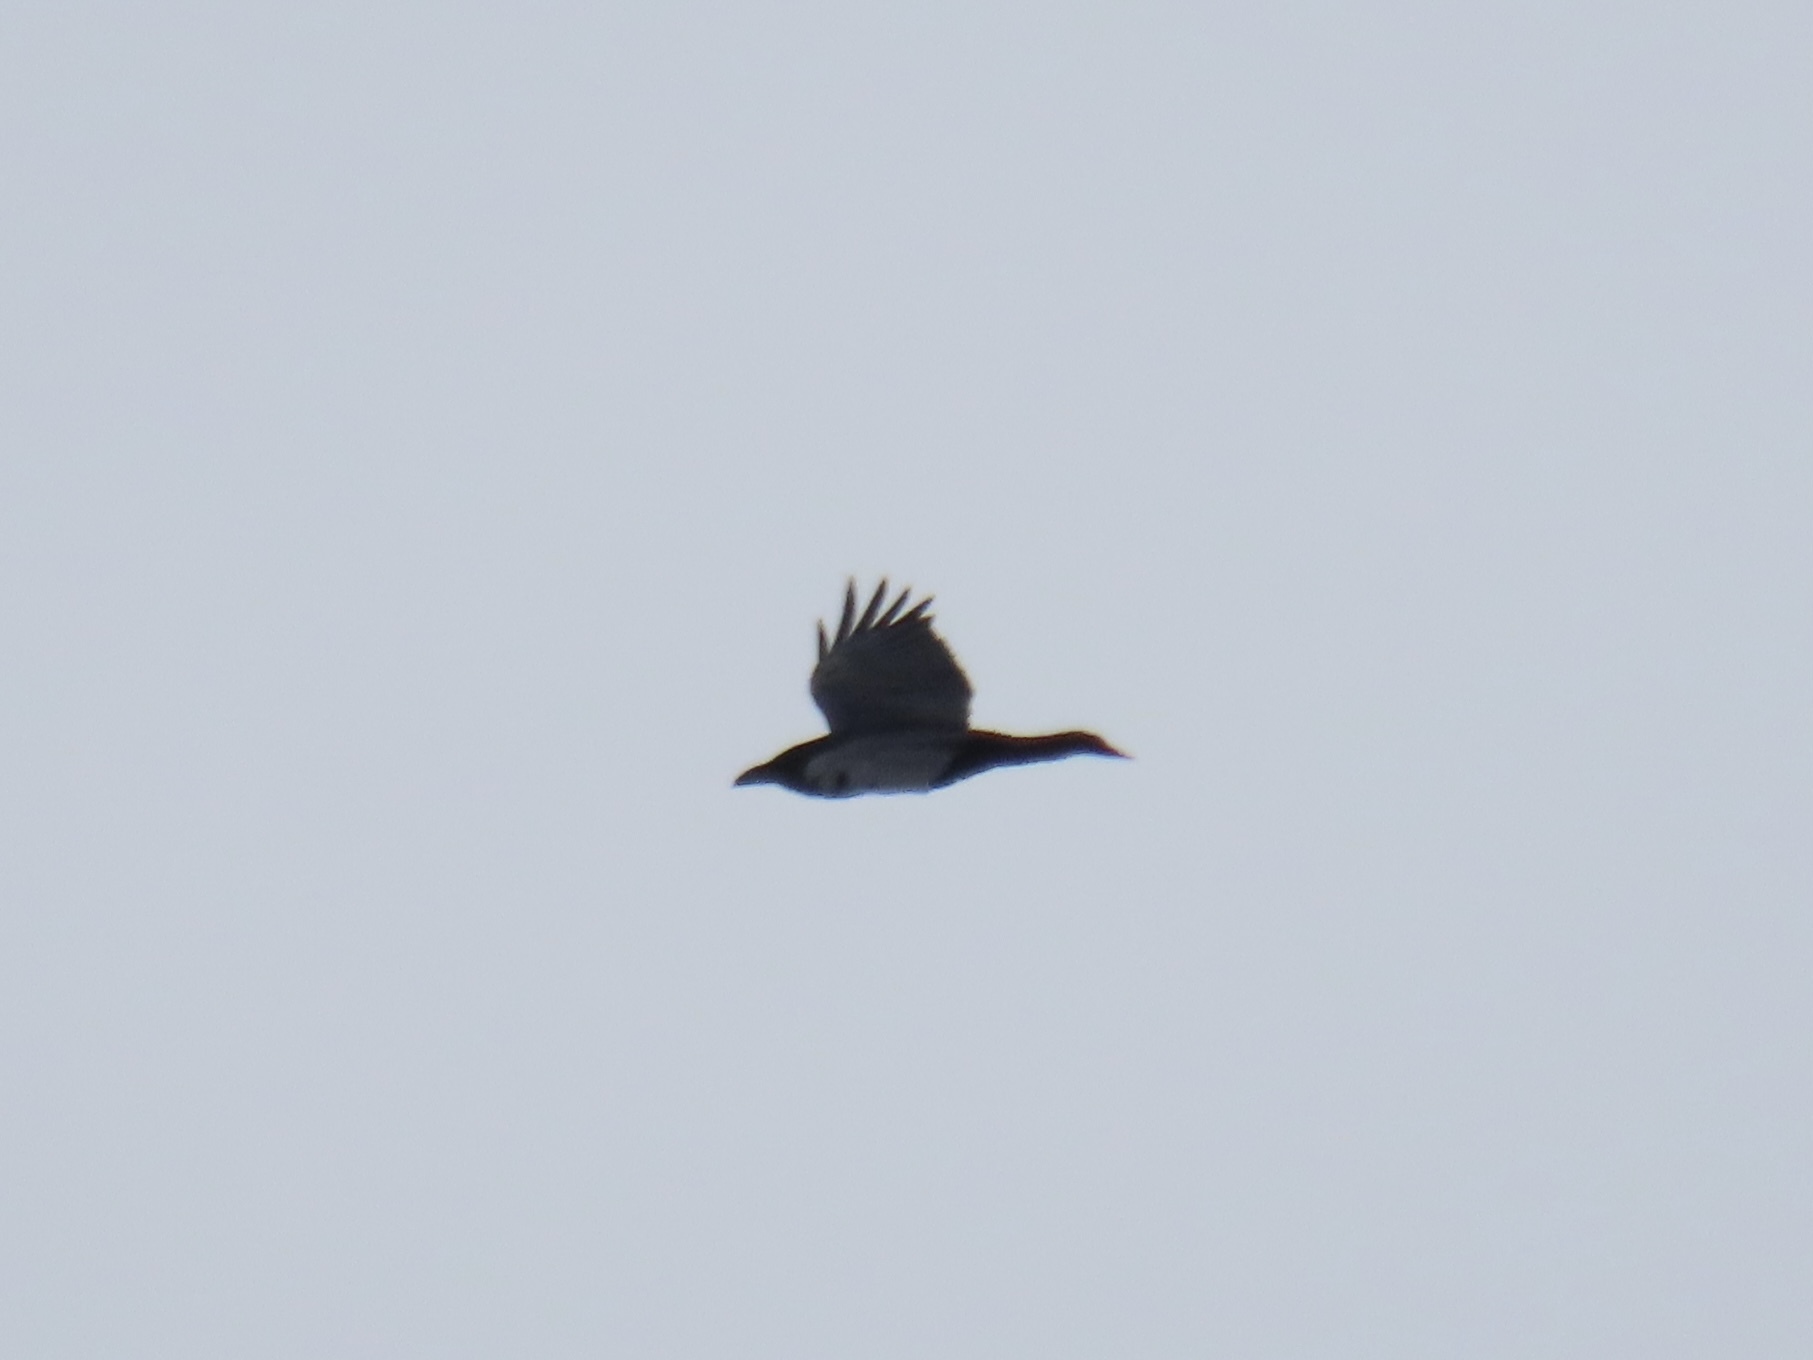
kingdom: Animalia
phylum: Chordata
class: Aves
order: Passeriformes
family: Corvidae
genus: Corvus
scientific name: Corvus corax
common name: Common raven
